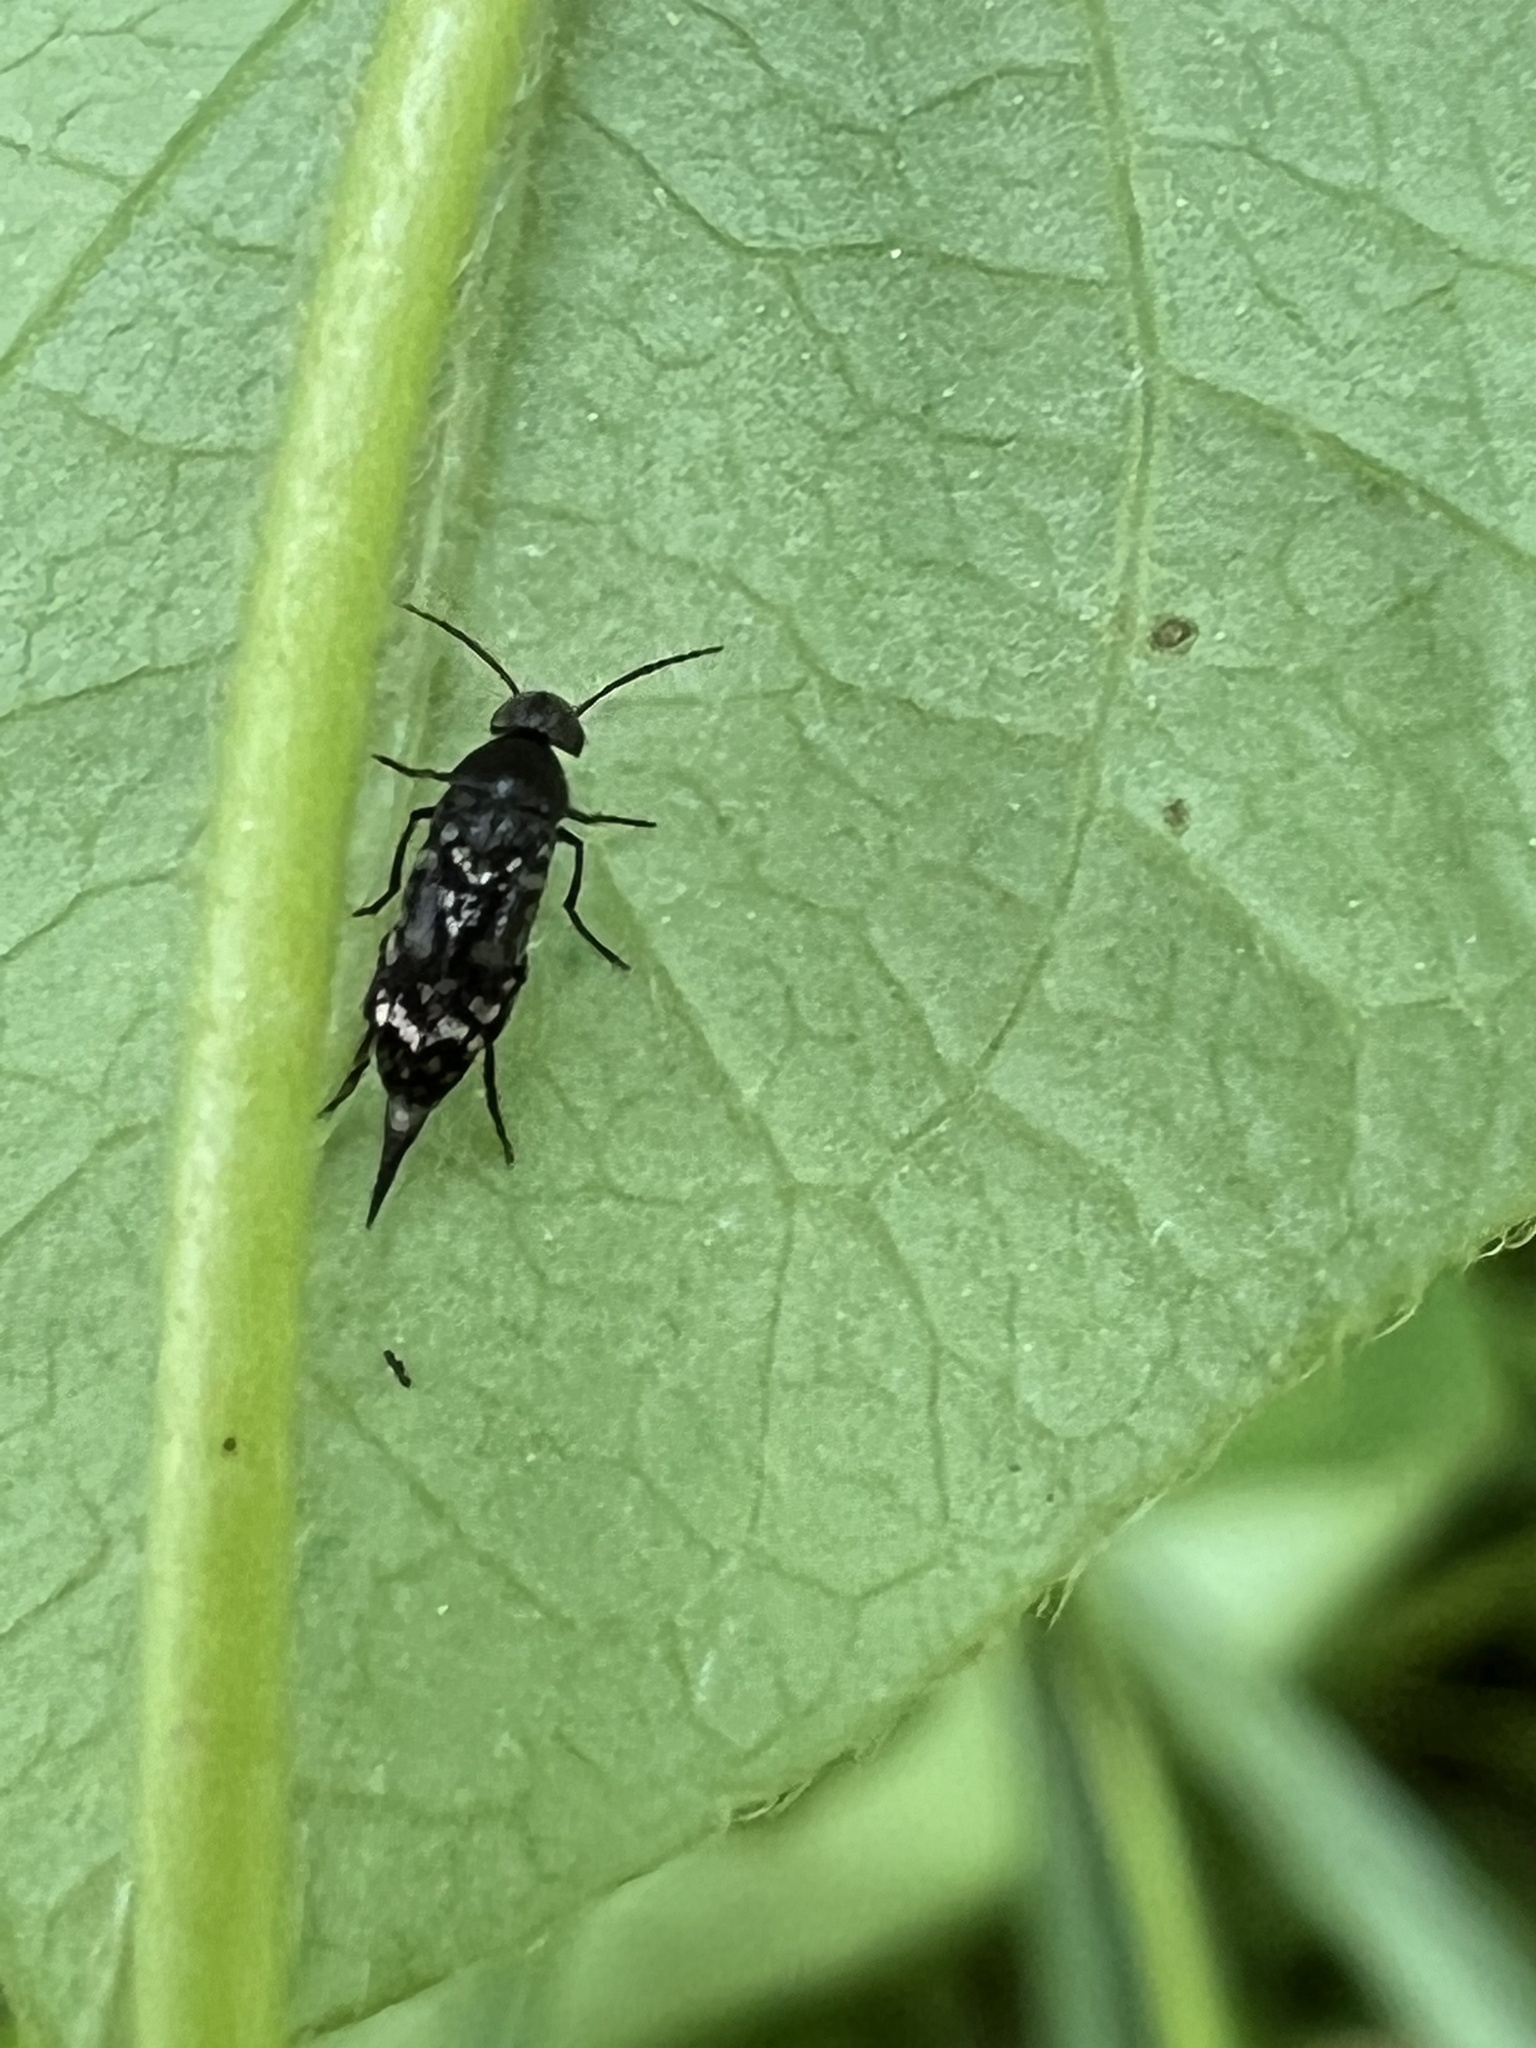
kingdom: Animalia
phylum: Arthropoda
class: Insecta
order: Coleoptera
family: Mordellidae
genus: Mordellina
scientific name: Mordellina pustulata
